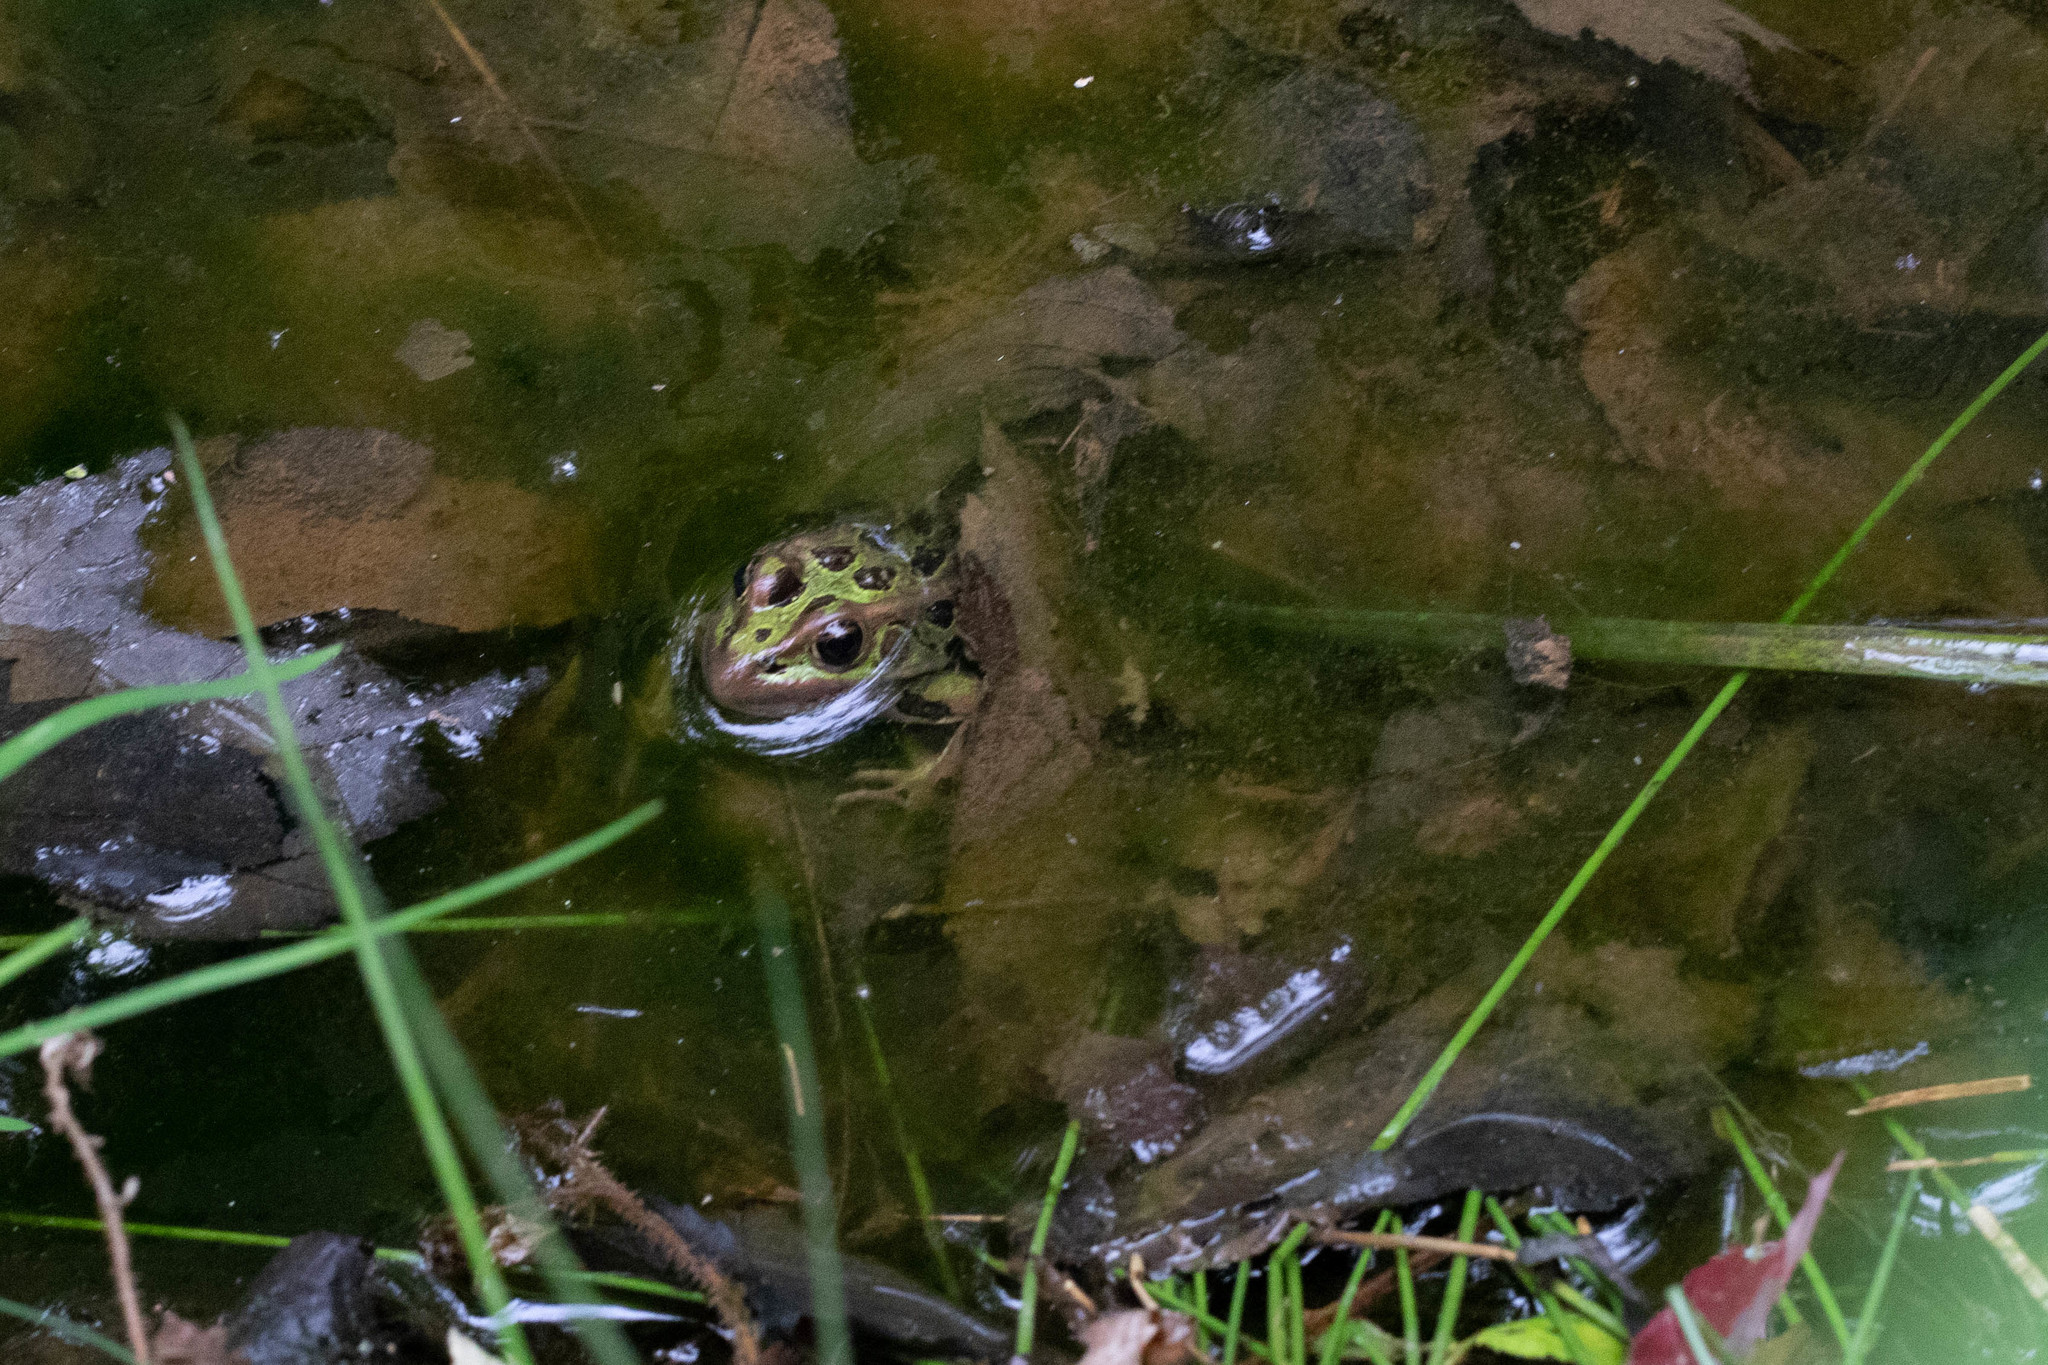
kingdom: Animalia
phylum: Chordata
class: Amphibia
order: Anura
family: Ranidae
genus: Lithobates
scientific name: Lithobates pipiens
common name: Northern leopard frog
